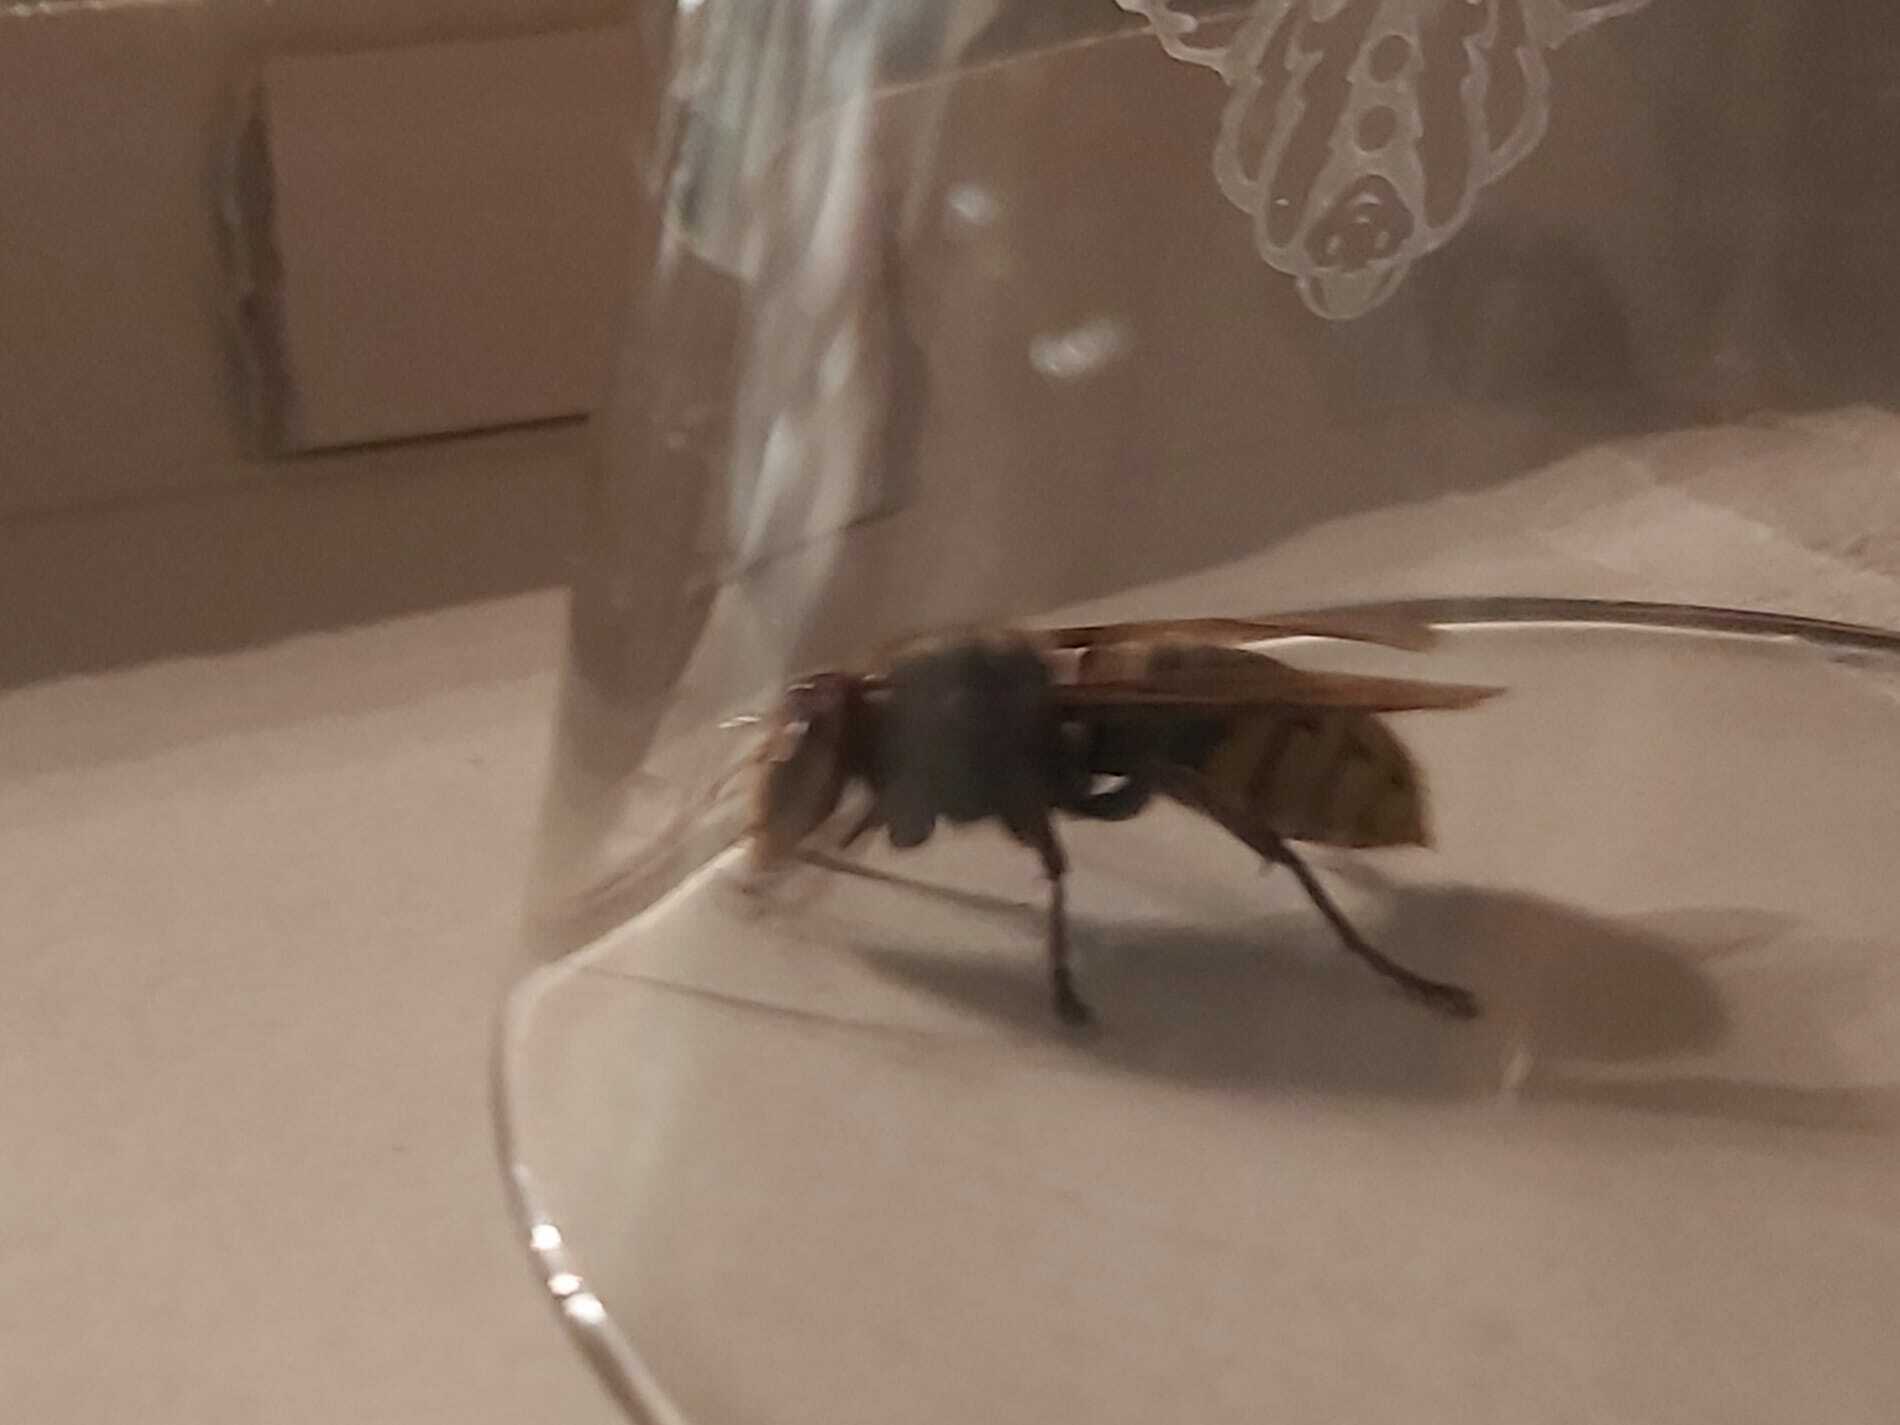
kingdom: Animalia
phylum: Arthropoda
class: Insecta
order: Hymenoptera
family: Vespidae
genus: Vespa
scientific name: Vespa crabro
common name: Hornet
